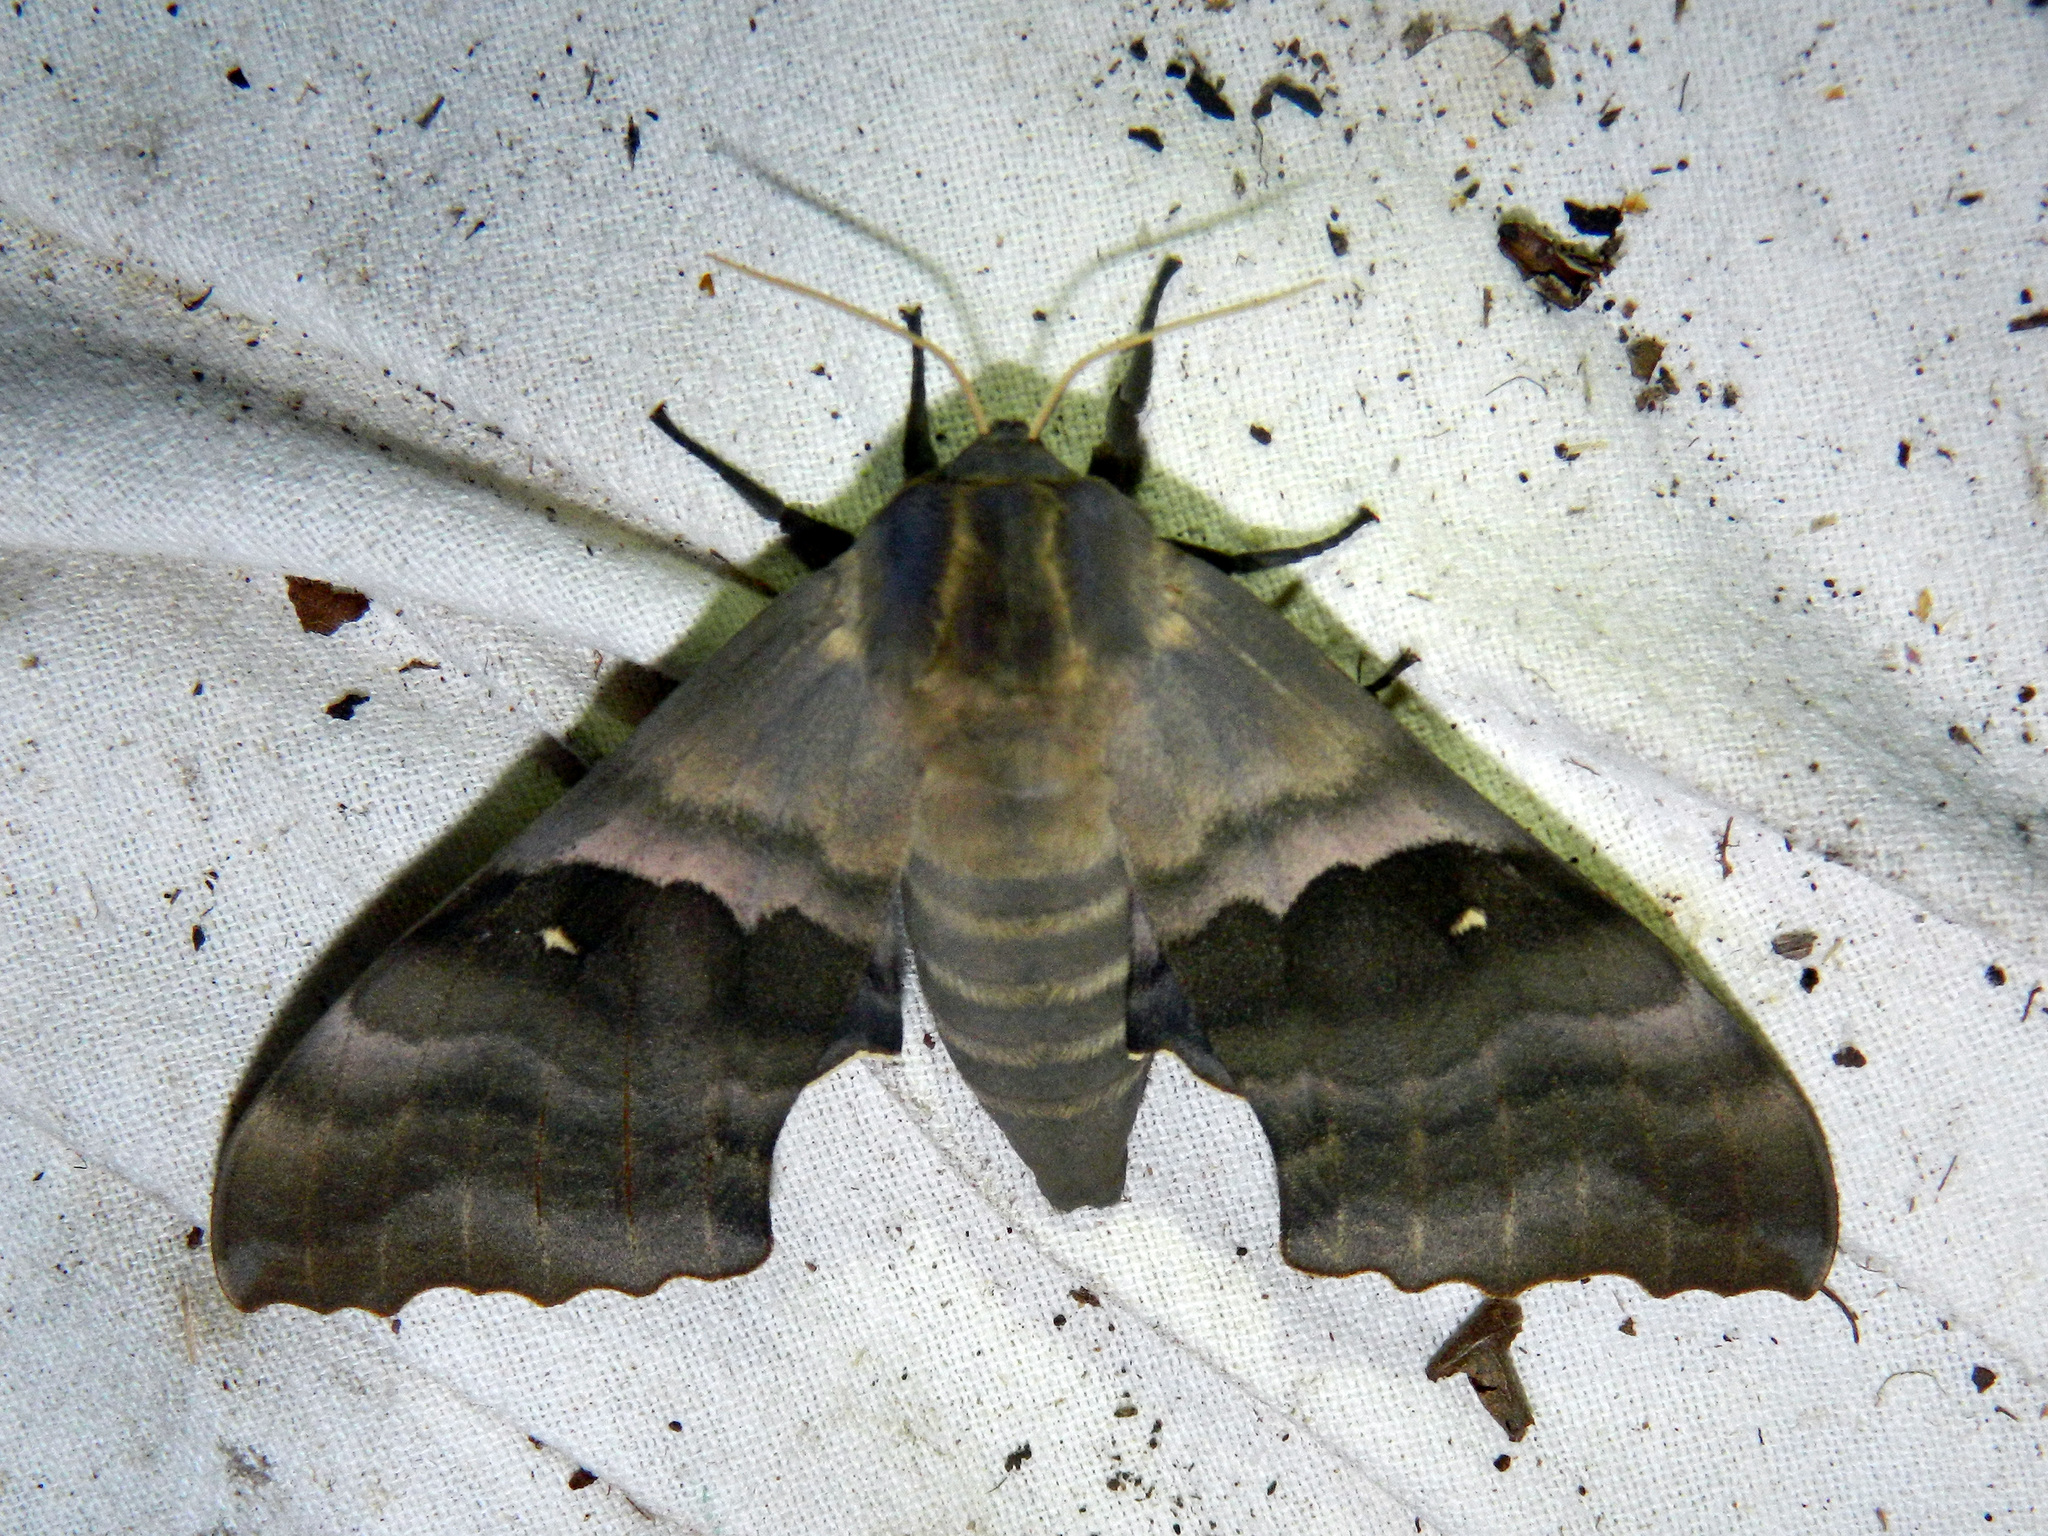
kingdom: Animalia
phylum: Arthropoda
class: Insecta
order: Lepidoptera
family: Sphingidae
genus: Pachysphinx
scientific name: Pachysphinx modesta
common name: Big poplar sphinx
